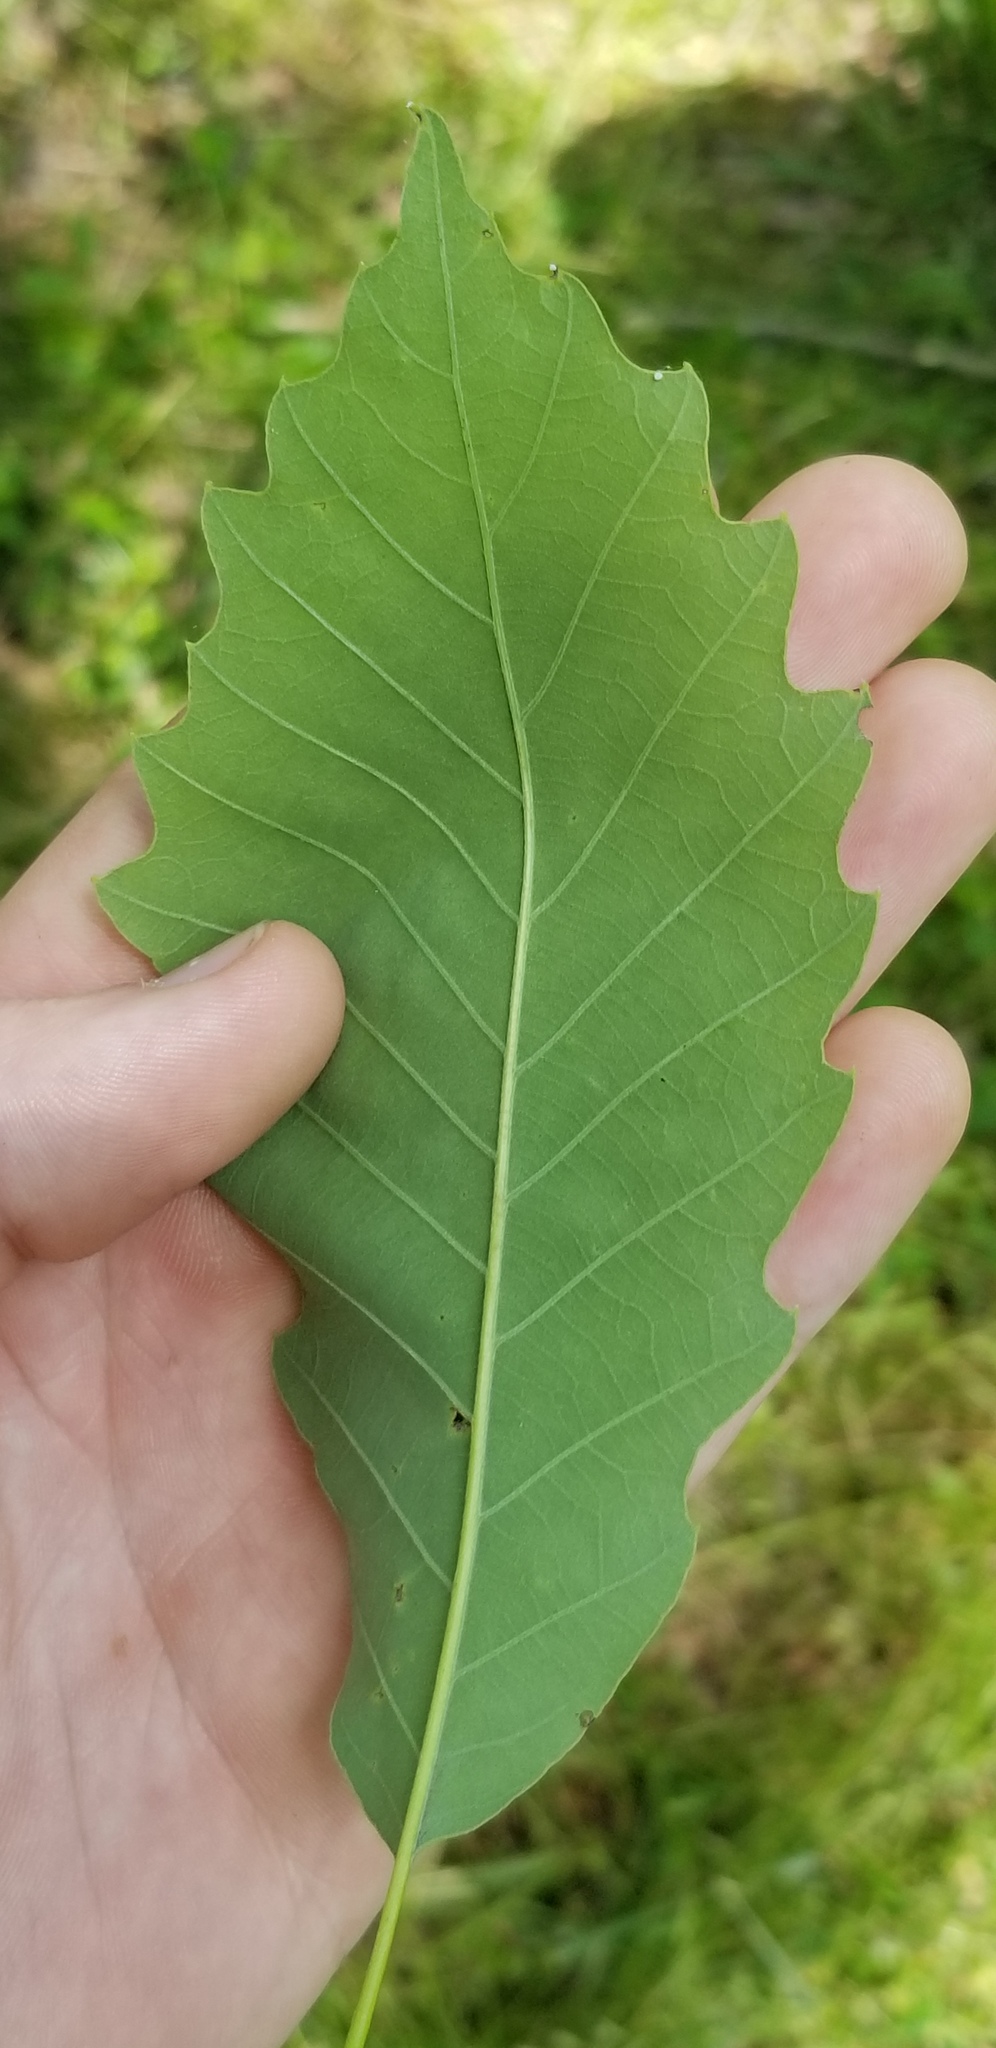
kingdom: Plantae
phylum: Tracheophyta
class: Magnoliopsida
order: Fagales
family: Fagaceae
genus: Quercus
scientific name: Quercus michauxii
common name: Swamp chestnut oak
